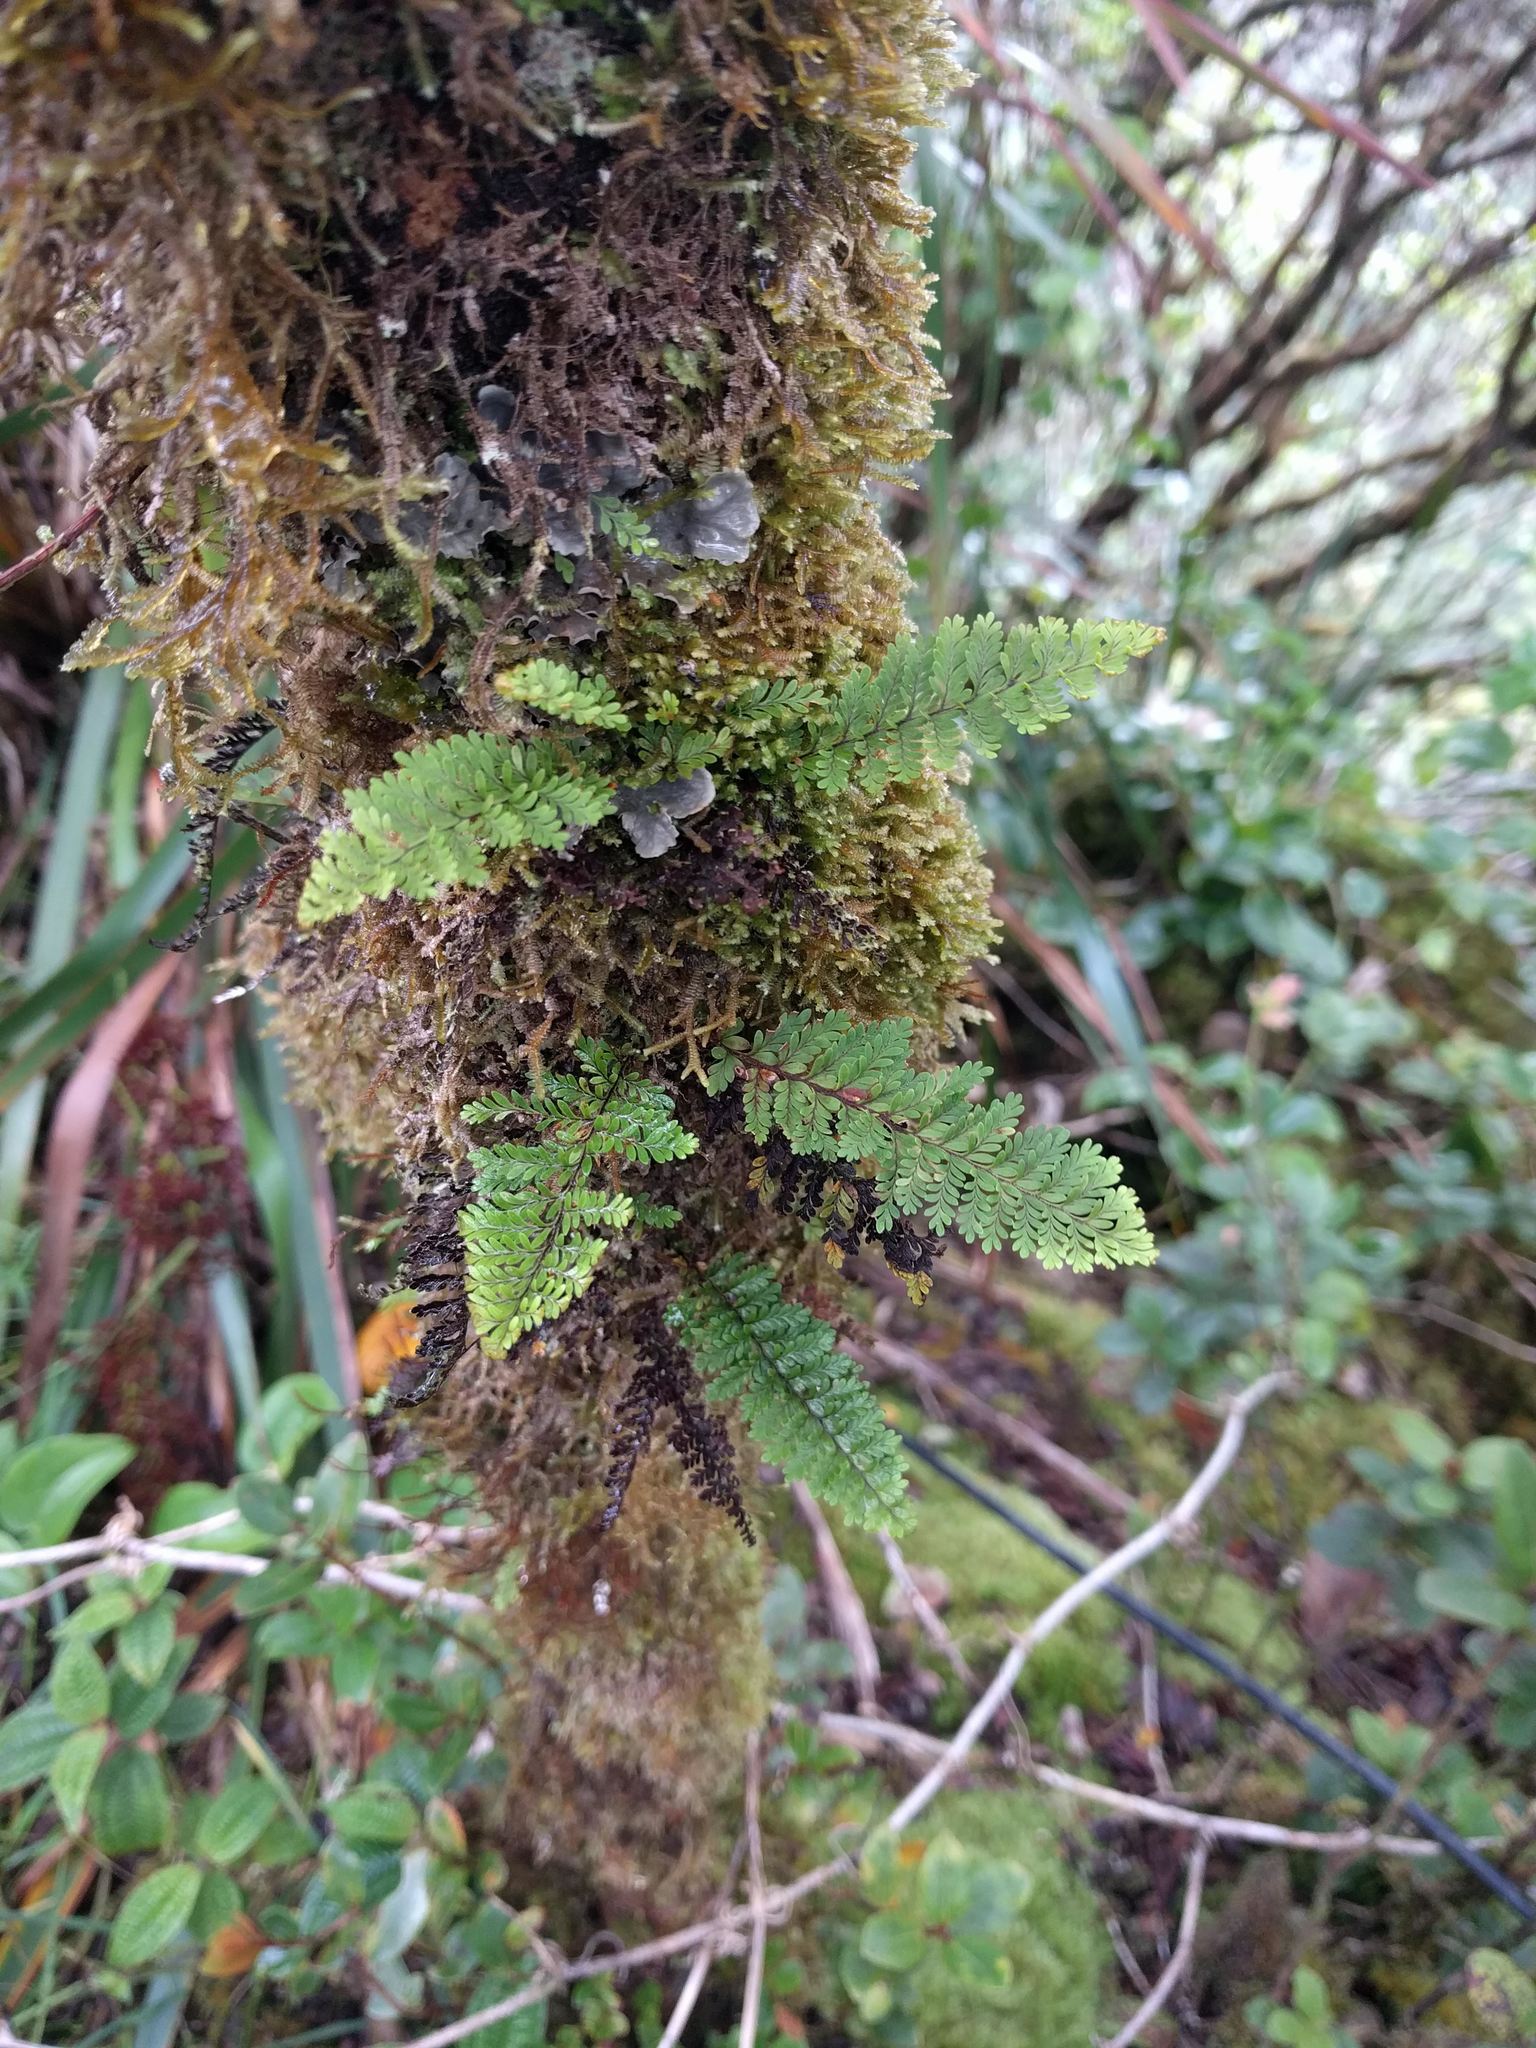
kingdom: Plantae
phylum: Tracheophyta
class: Polypodiopsida
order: Polypodiales
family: Polypodiaceae
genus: Adenophorus
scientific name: Adenophorus tamariscinus
